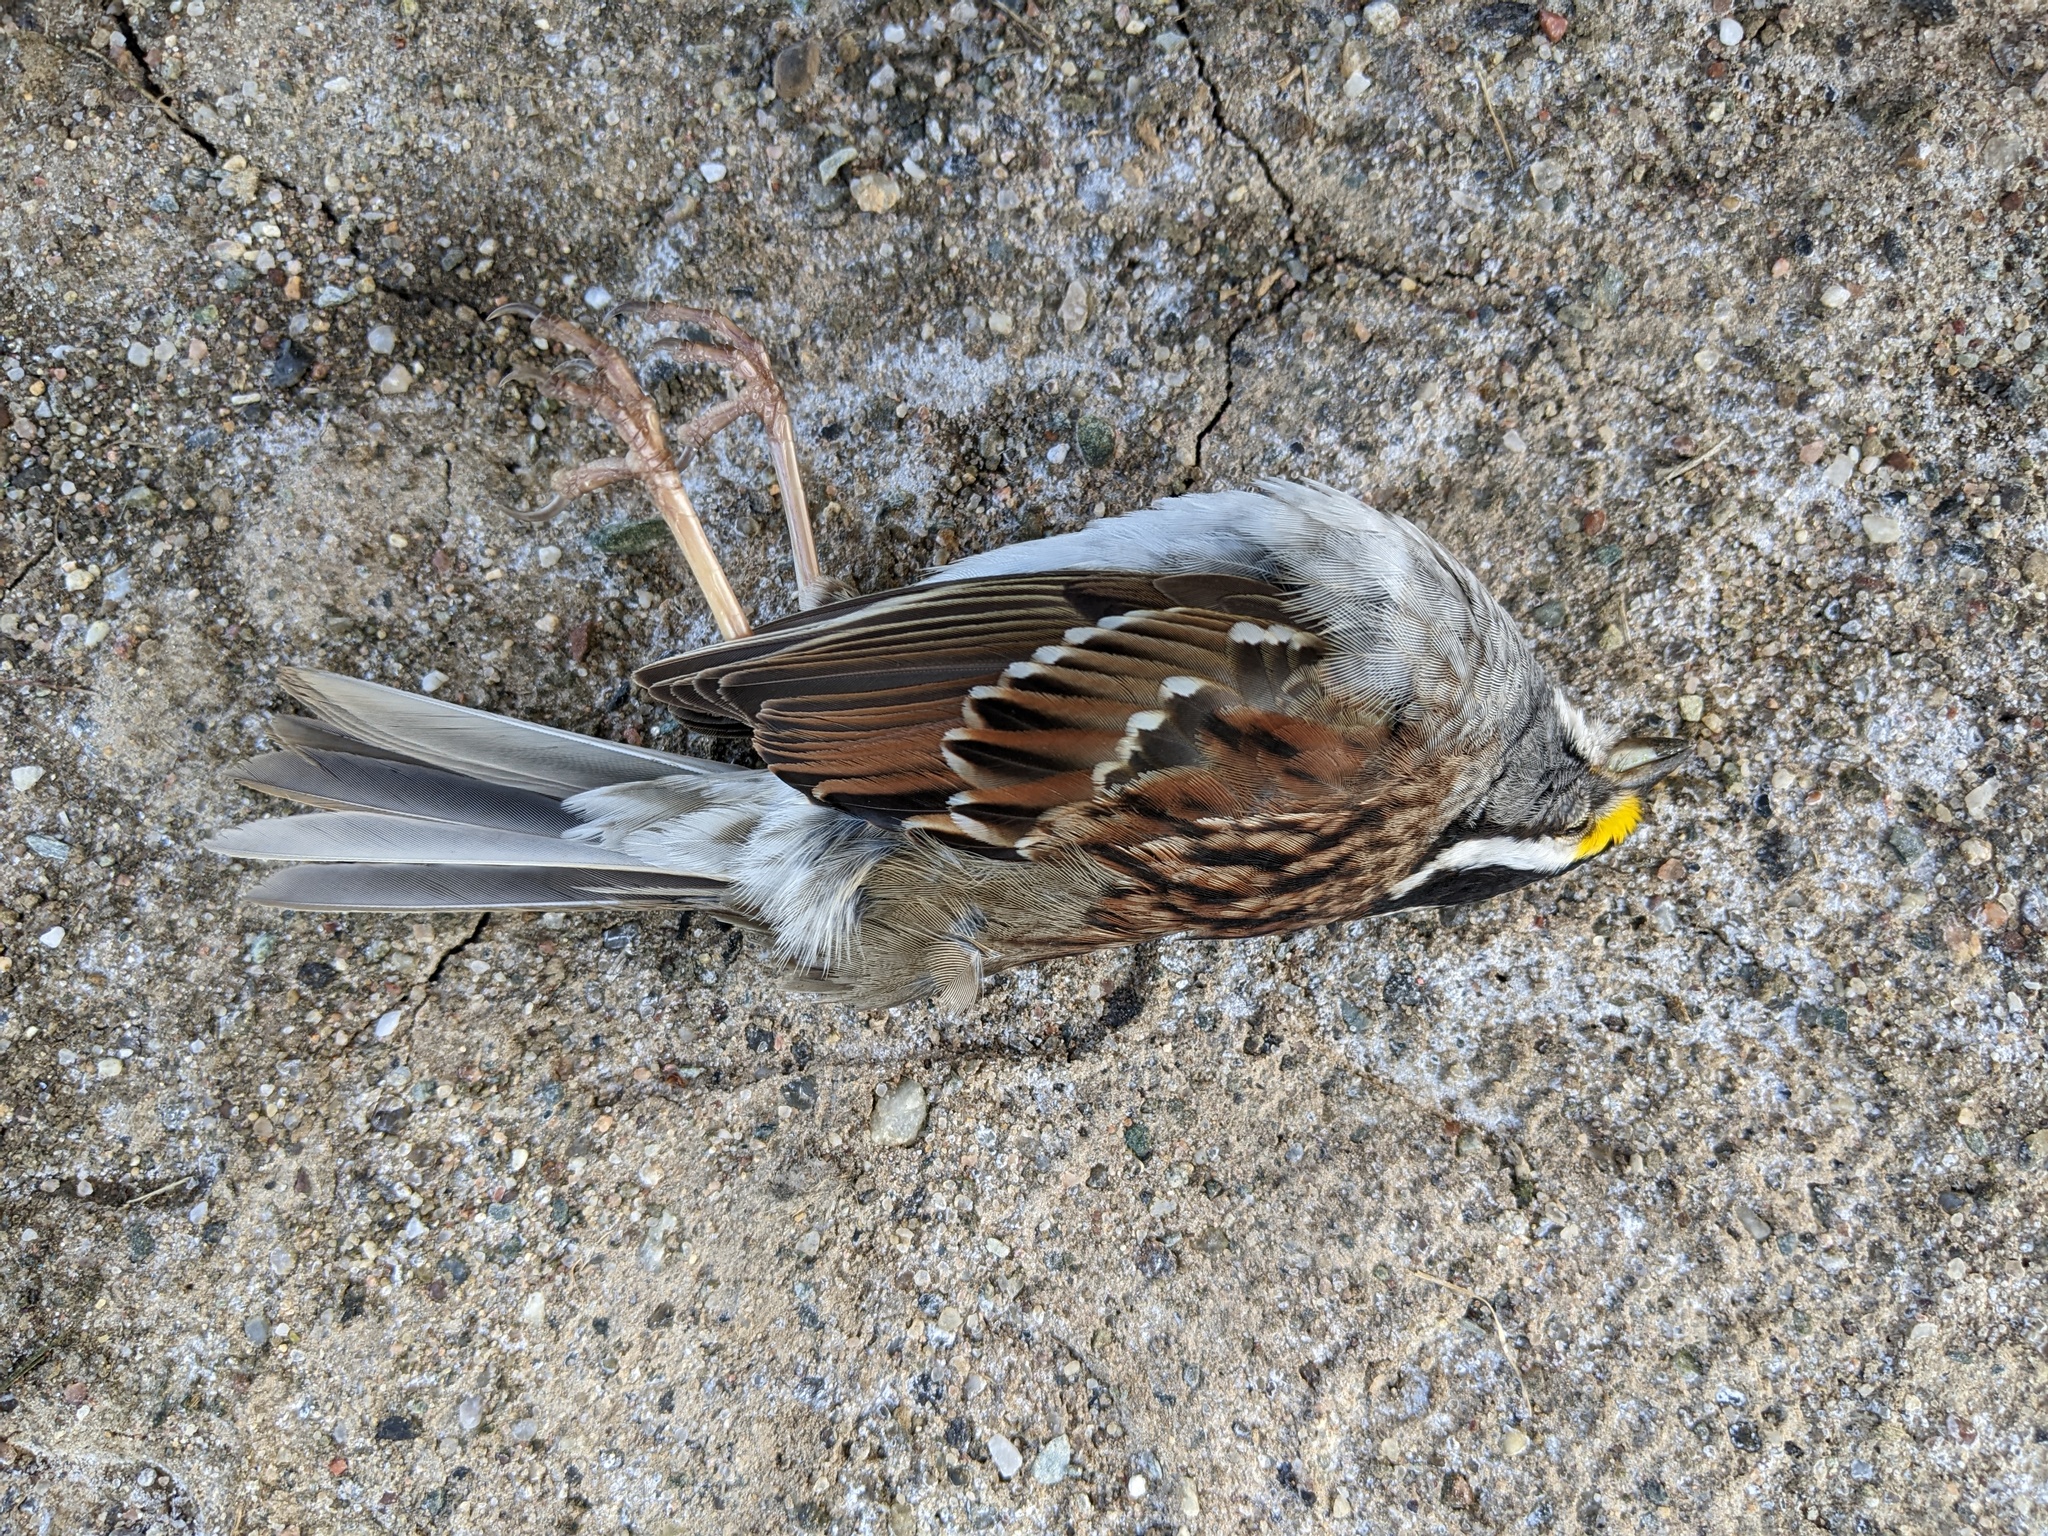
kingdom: Animalia
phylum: Chordata
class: Aves
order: Passeriformes
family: Passerellidae
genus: Zonotrichia
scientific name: Zonotrichia albicollis
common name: White-throated sparrow
